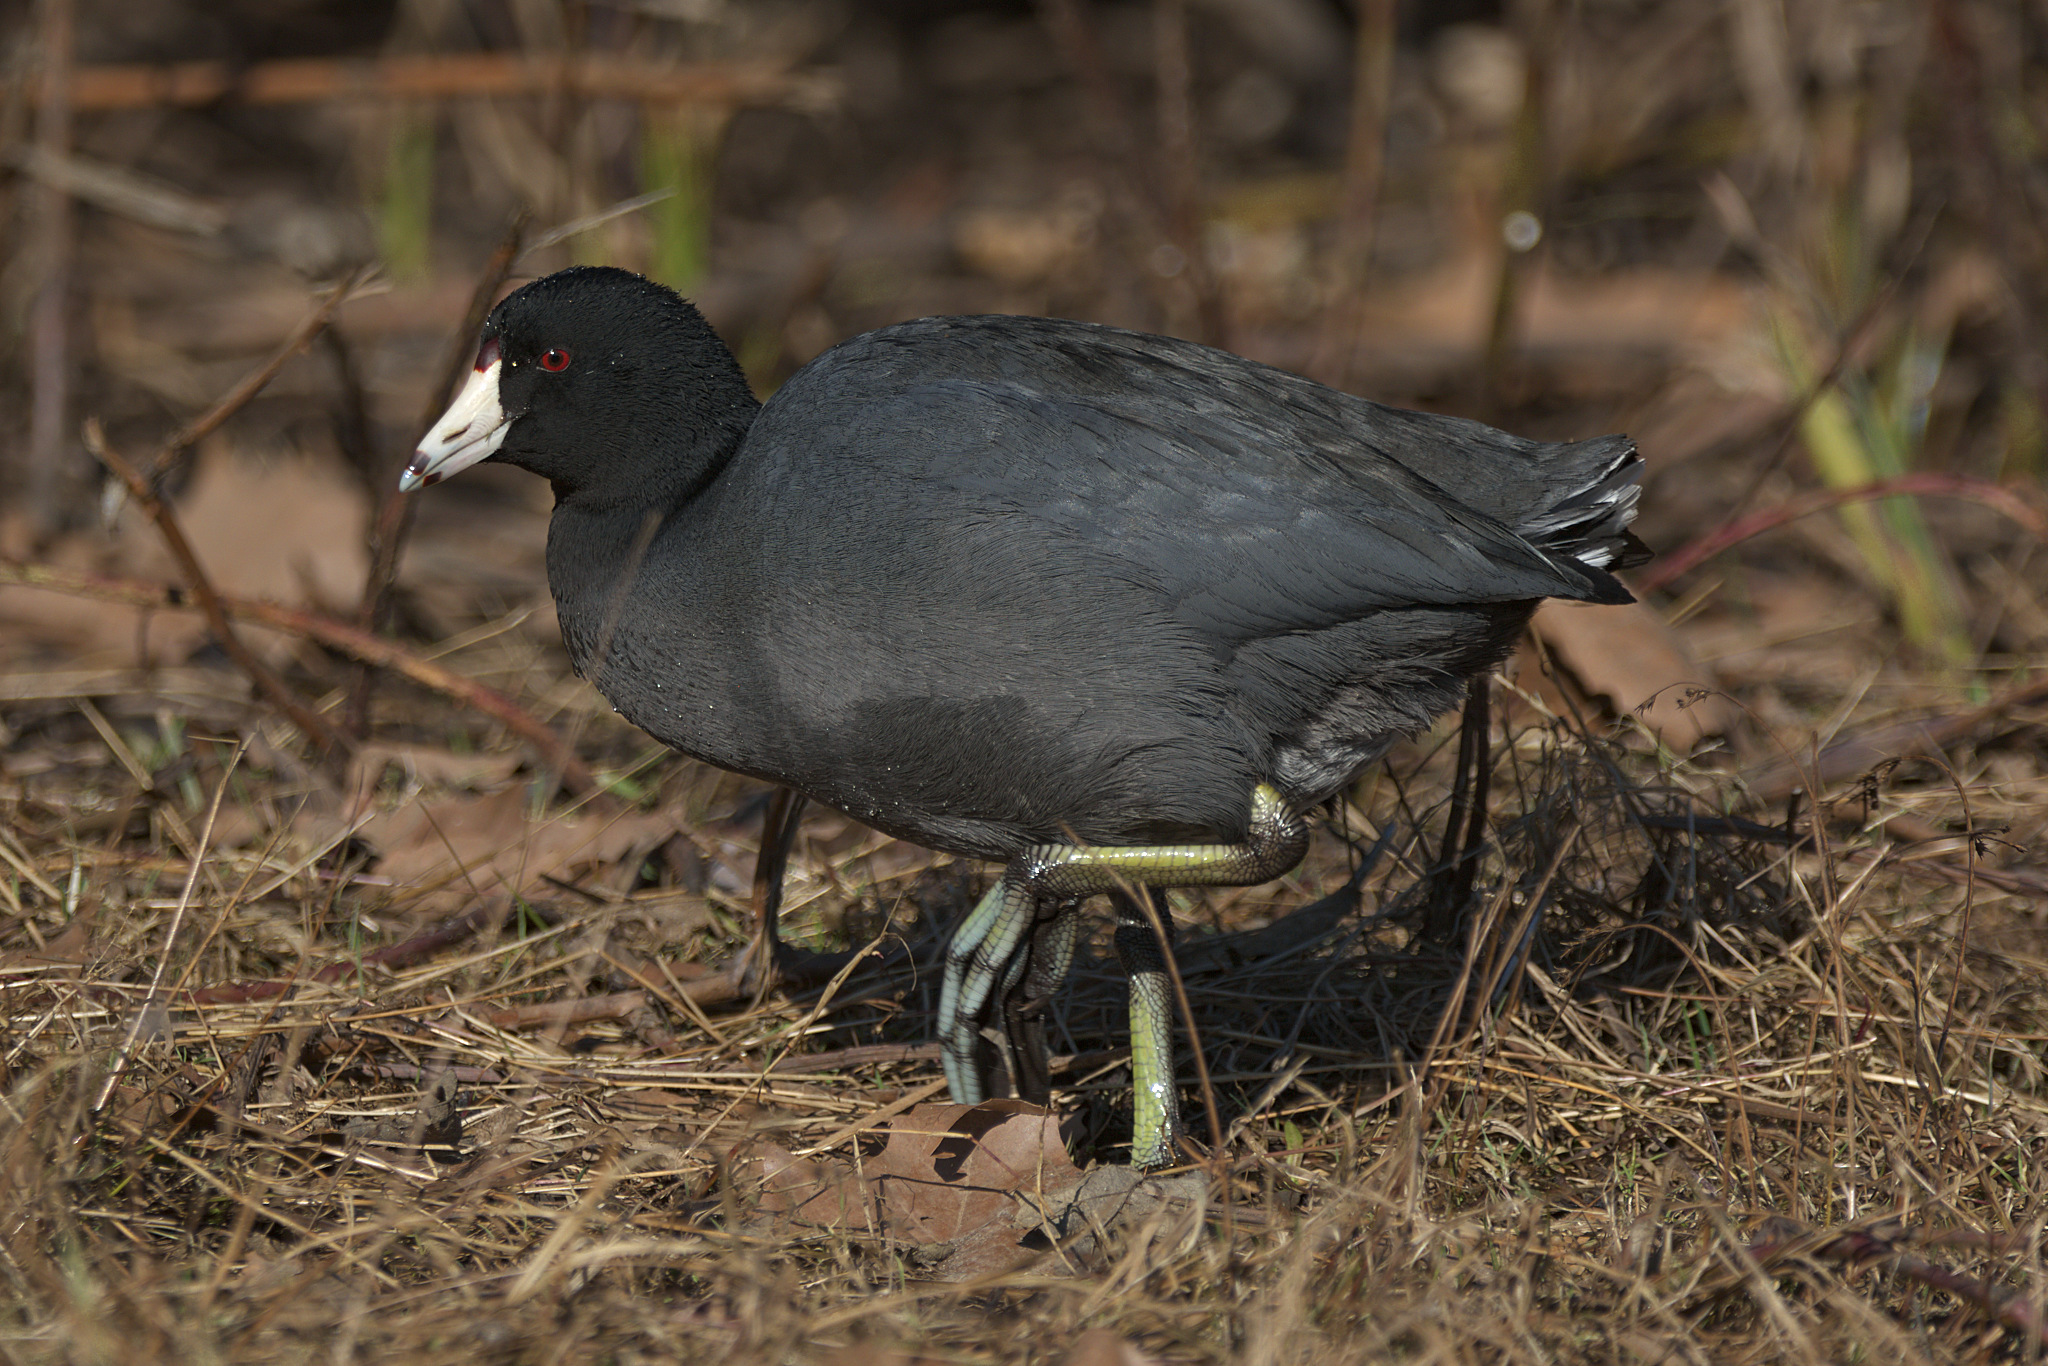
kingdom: Animalia
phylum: Chordata
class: Aves
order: Gruiformes
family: Rallidae
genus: Fulica
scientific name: Fulica americana
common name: American coot
